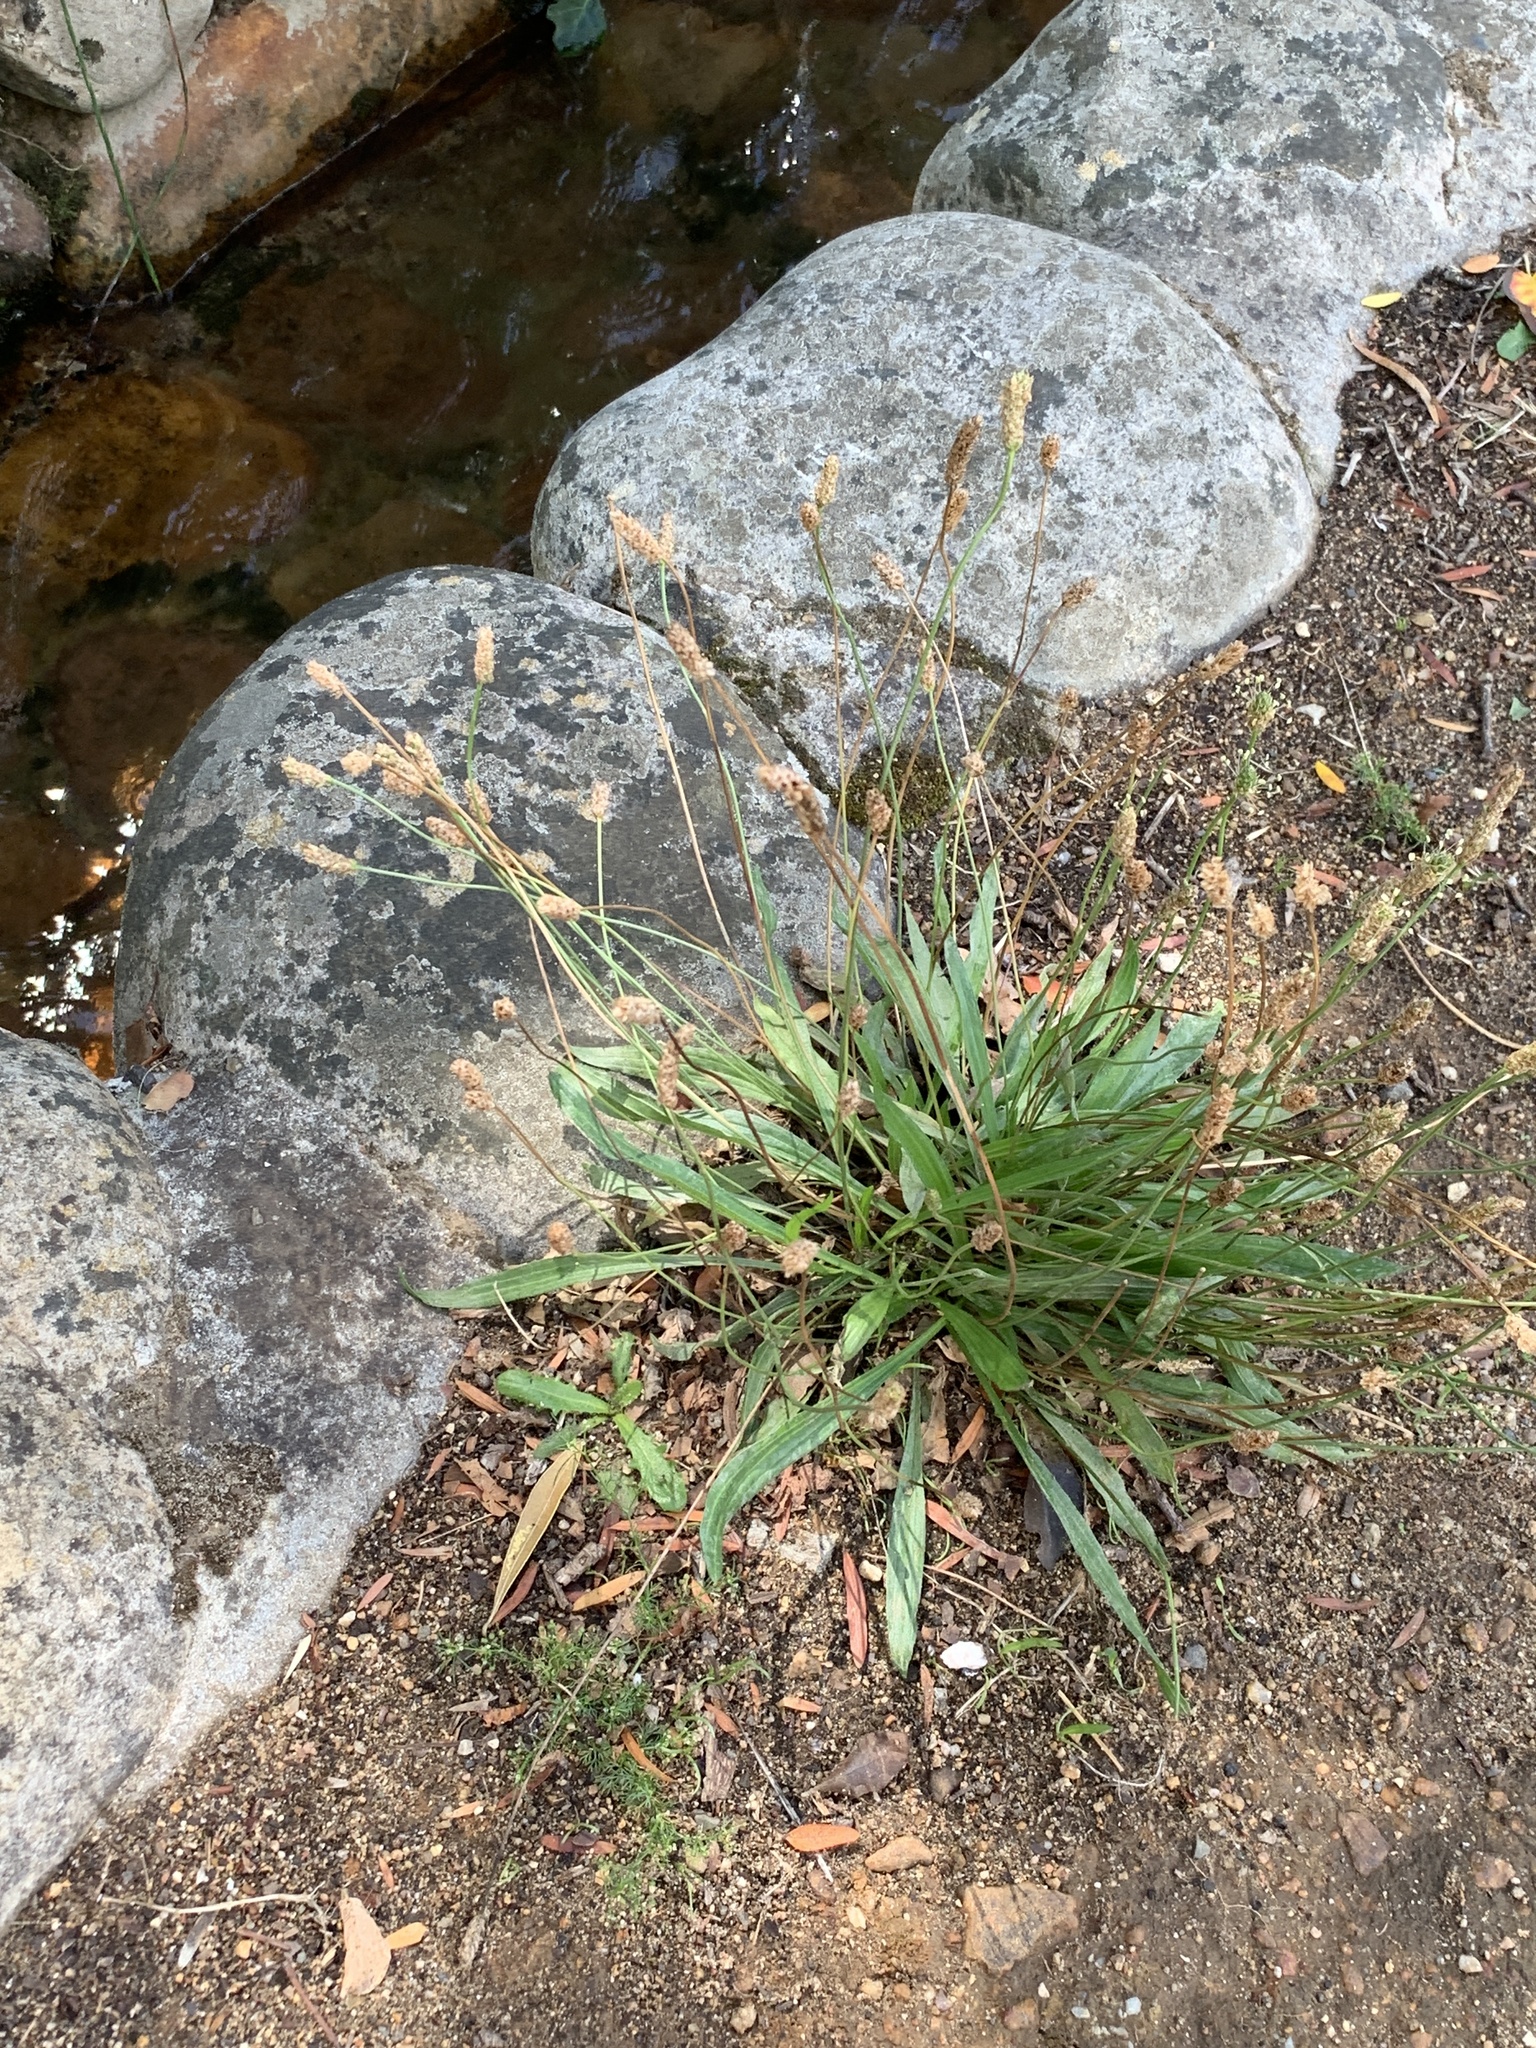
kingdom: Plantae
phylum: Tracheophyta
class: Magnoliopsida
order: Lamiales
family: Plantaginaceae
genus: Plantago
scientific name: Plantago lanceolata
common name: Ribwort plantain
